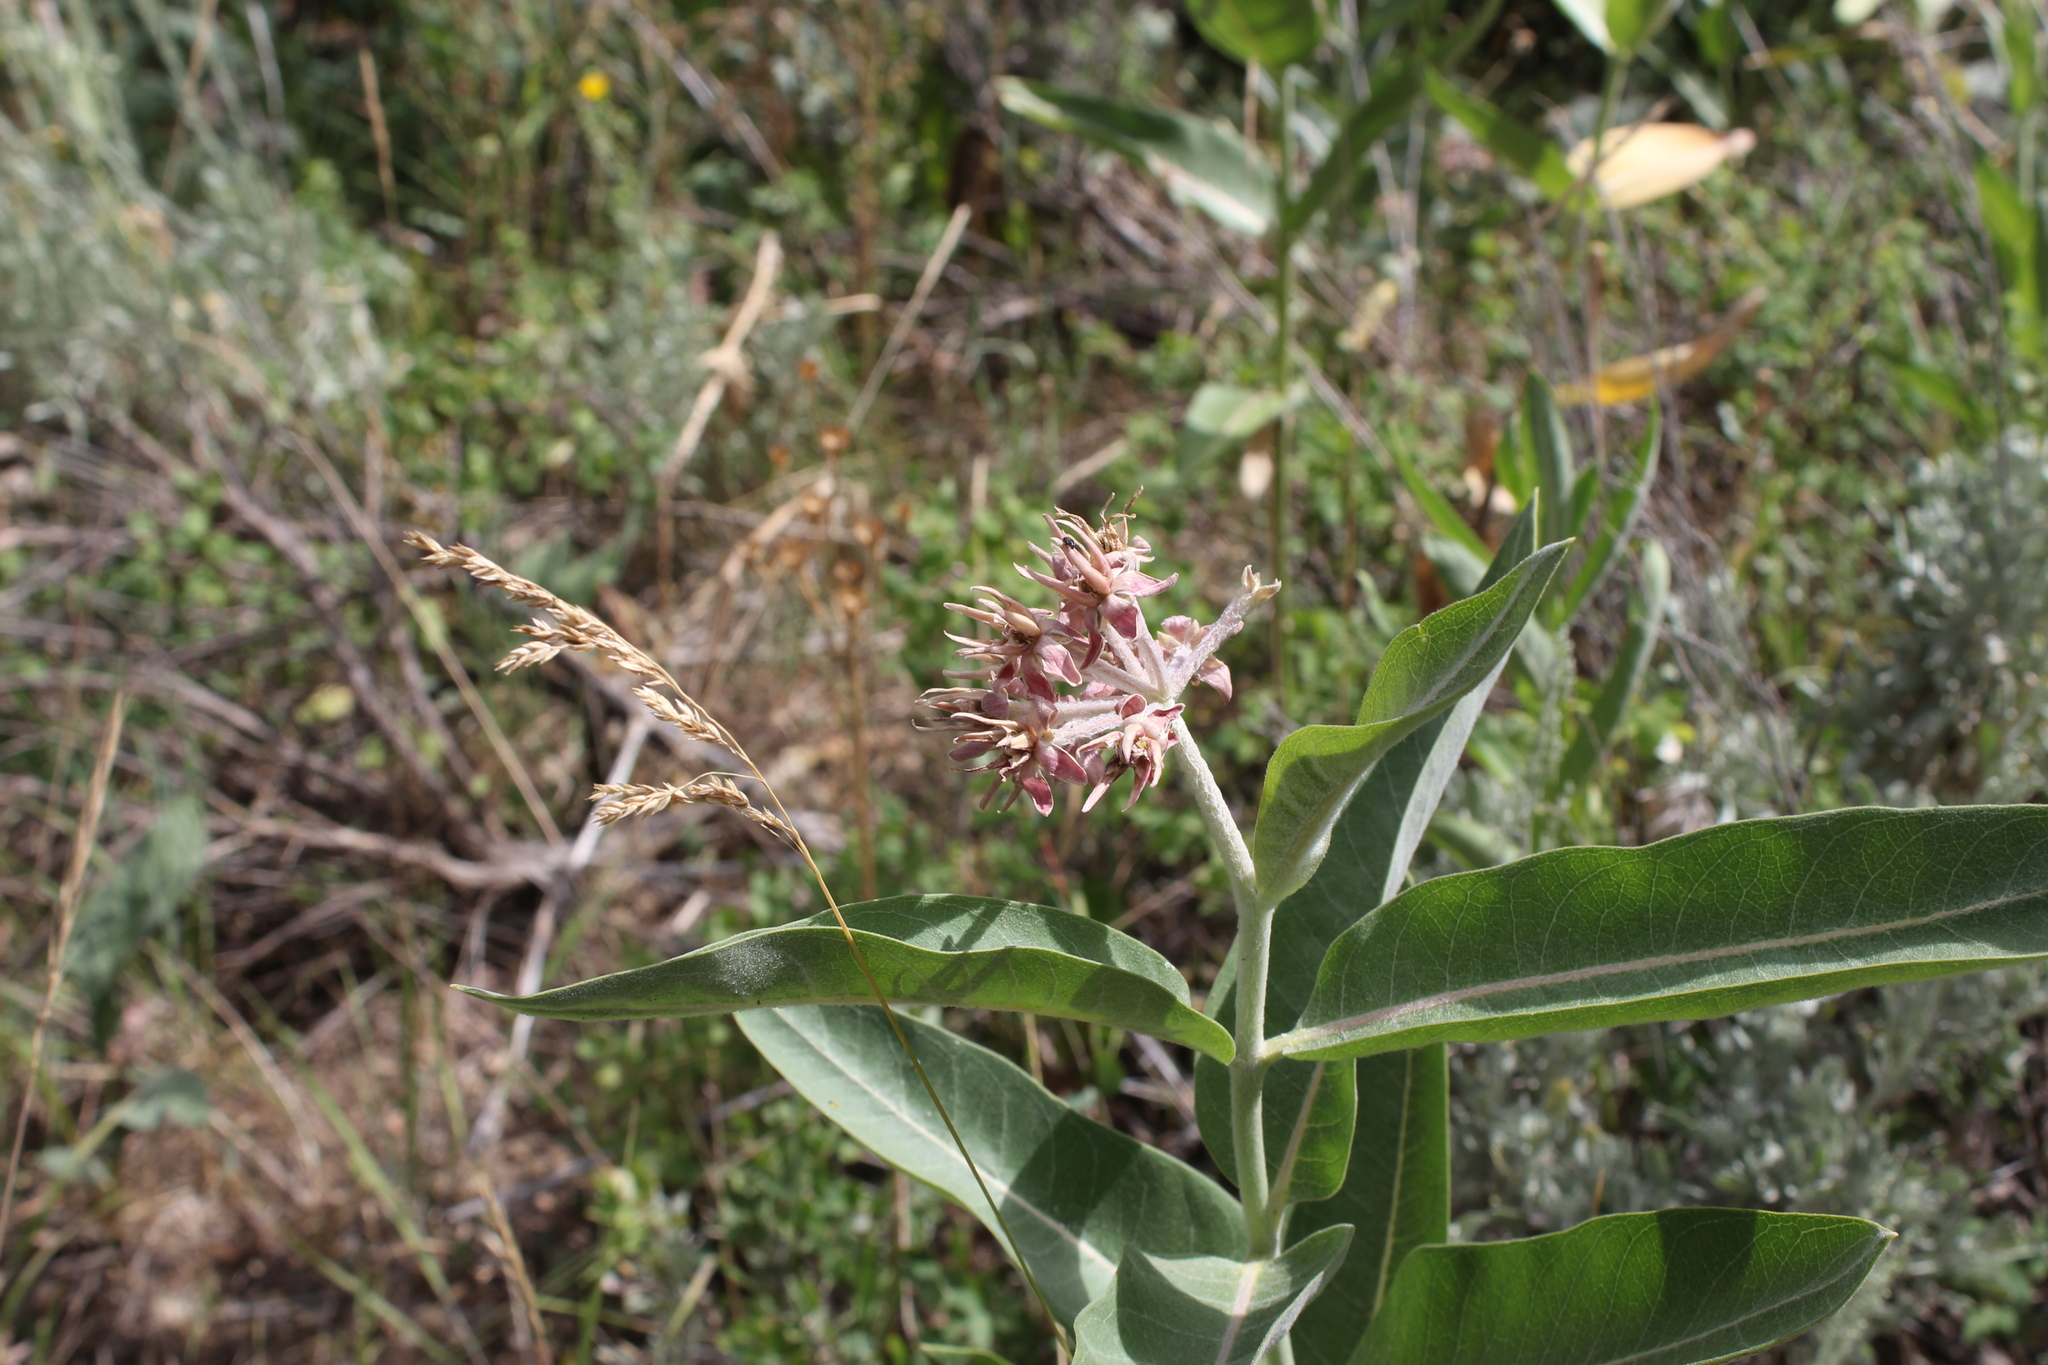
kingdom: Plantae
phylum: Tracheophyta
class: Magnoliopsida
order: Gentianales
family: Apocynaceae
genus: Asclepias
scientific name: Asclepias speciosa
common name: Showy milkweed
